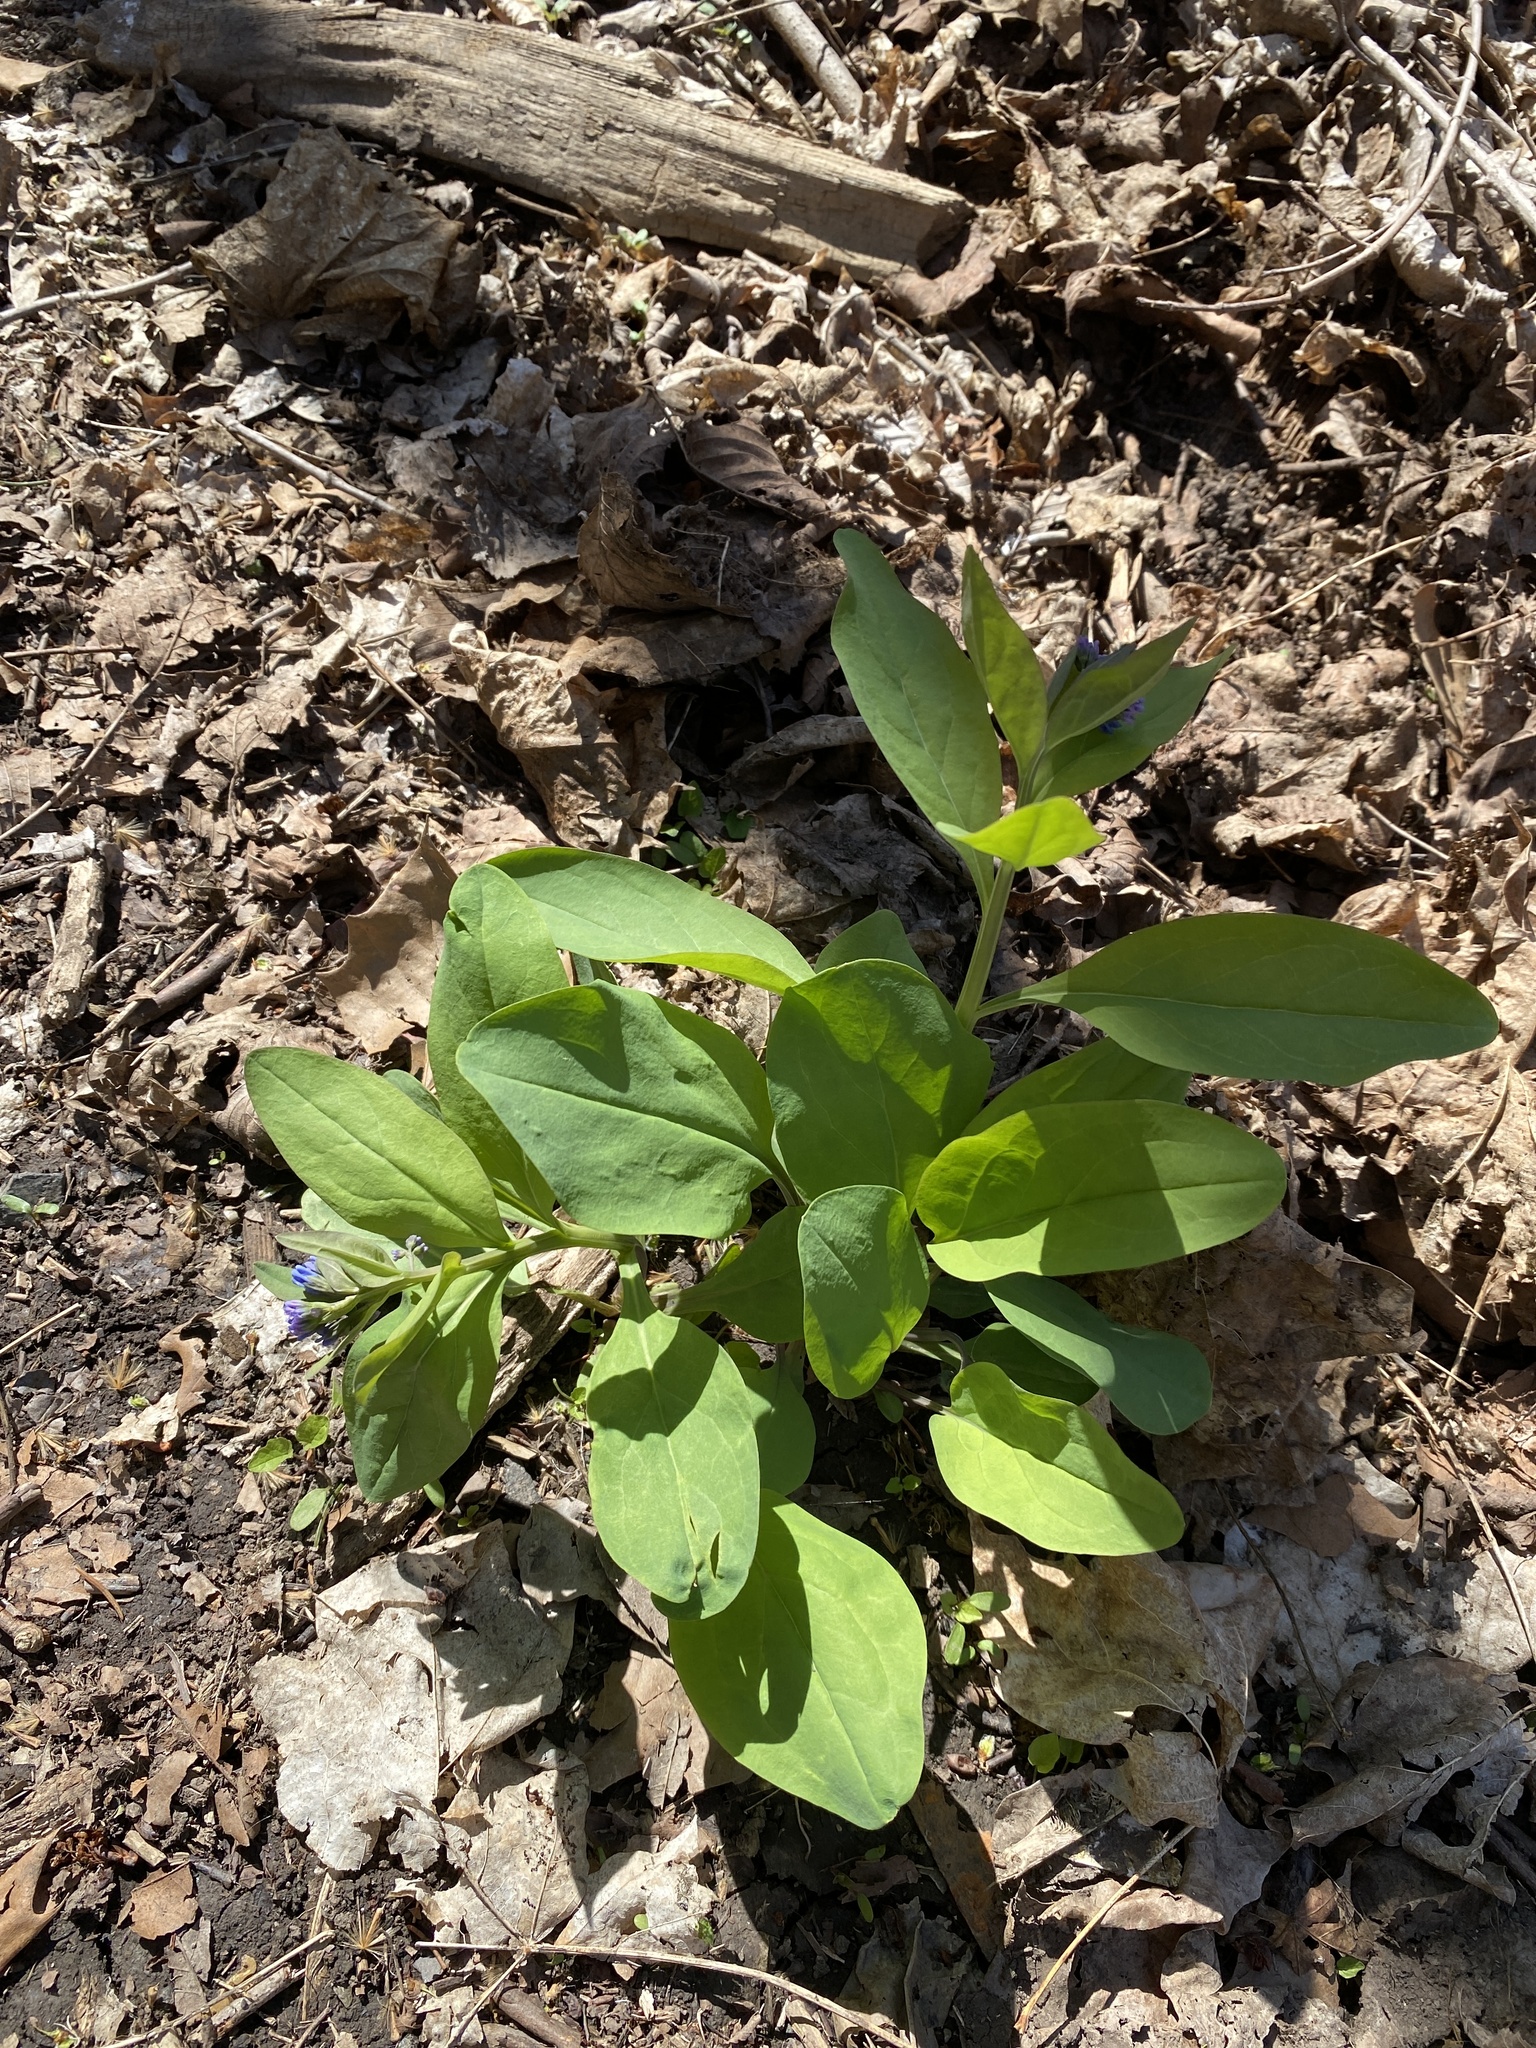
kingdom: Plantae
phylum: Tracheophyta
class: Magnoliopsida
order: Boraginales
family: Boraginaceae
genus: Mertensia
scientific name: Mertensia virginica
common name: Virginia bluebells
